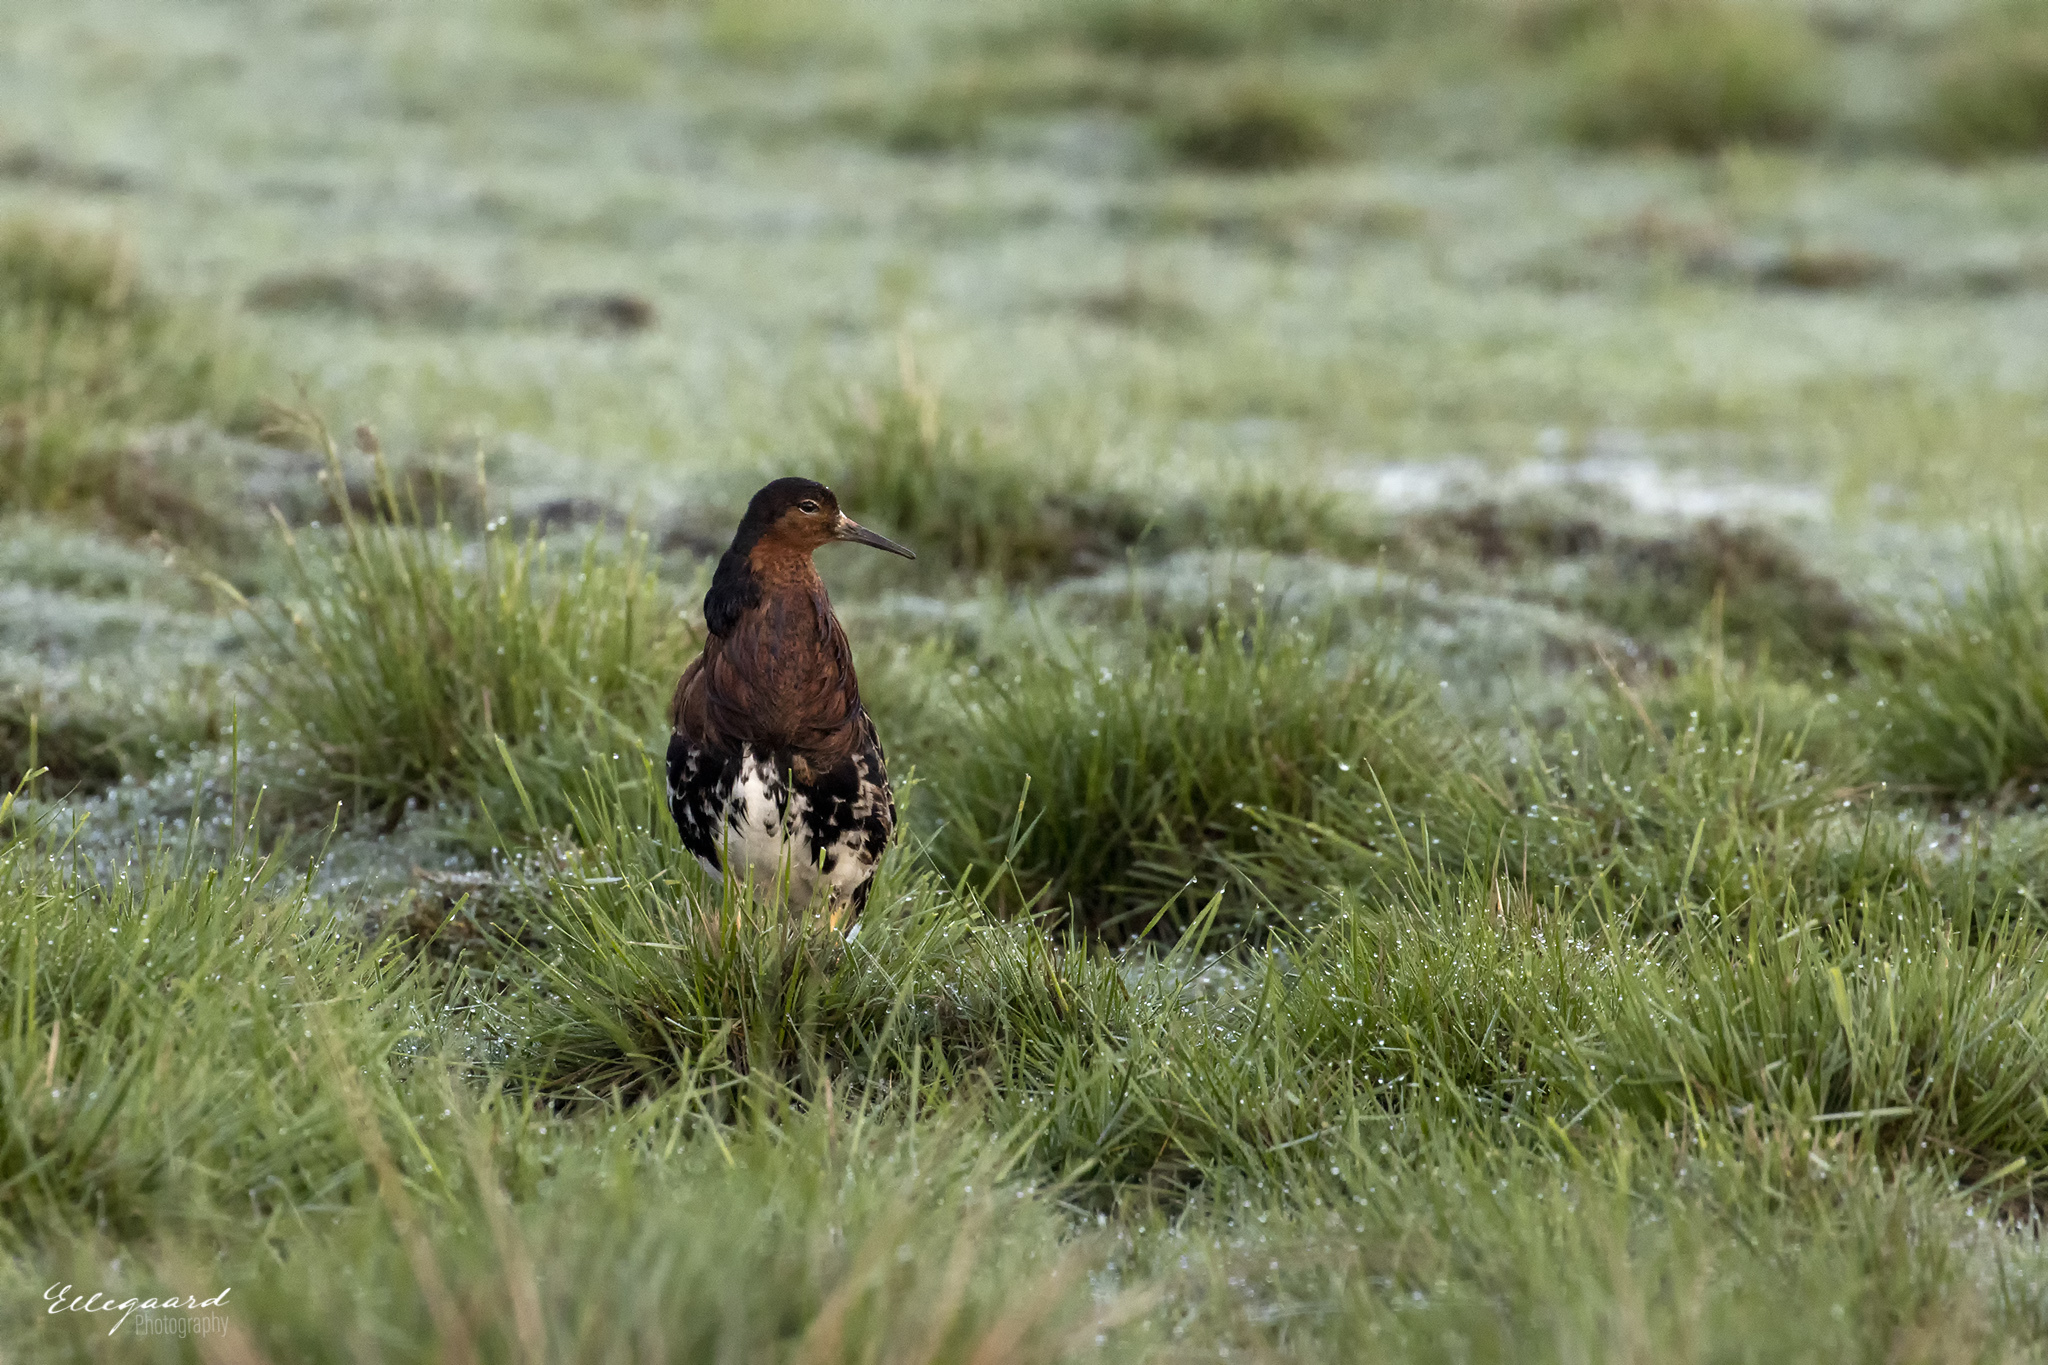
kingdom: Animalia
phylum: Chordata
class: Aves
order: Charadriiformes
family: Scolopacidae
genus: Calidris
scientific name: Calidris pugnax
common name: Ruff
